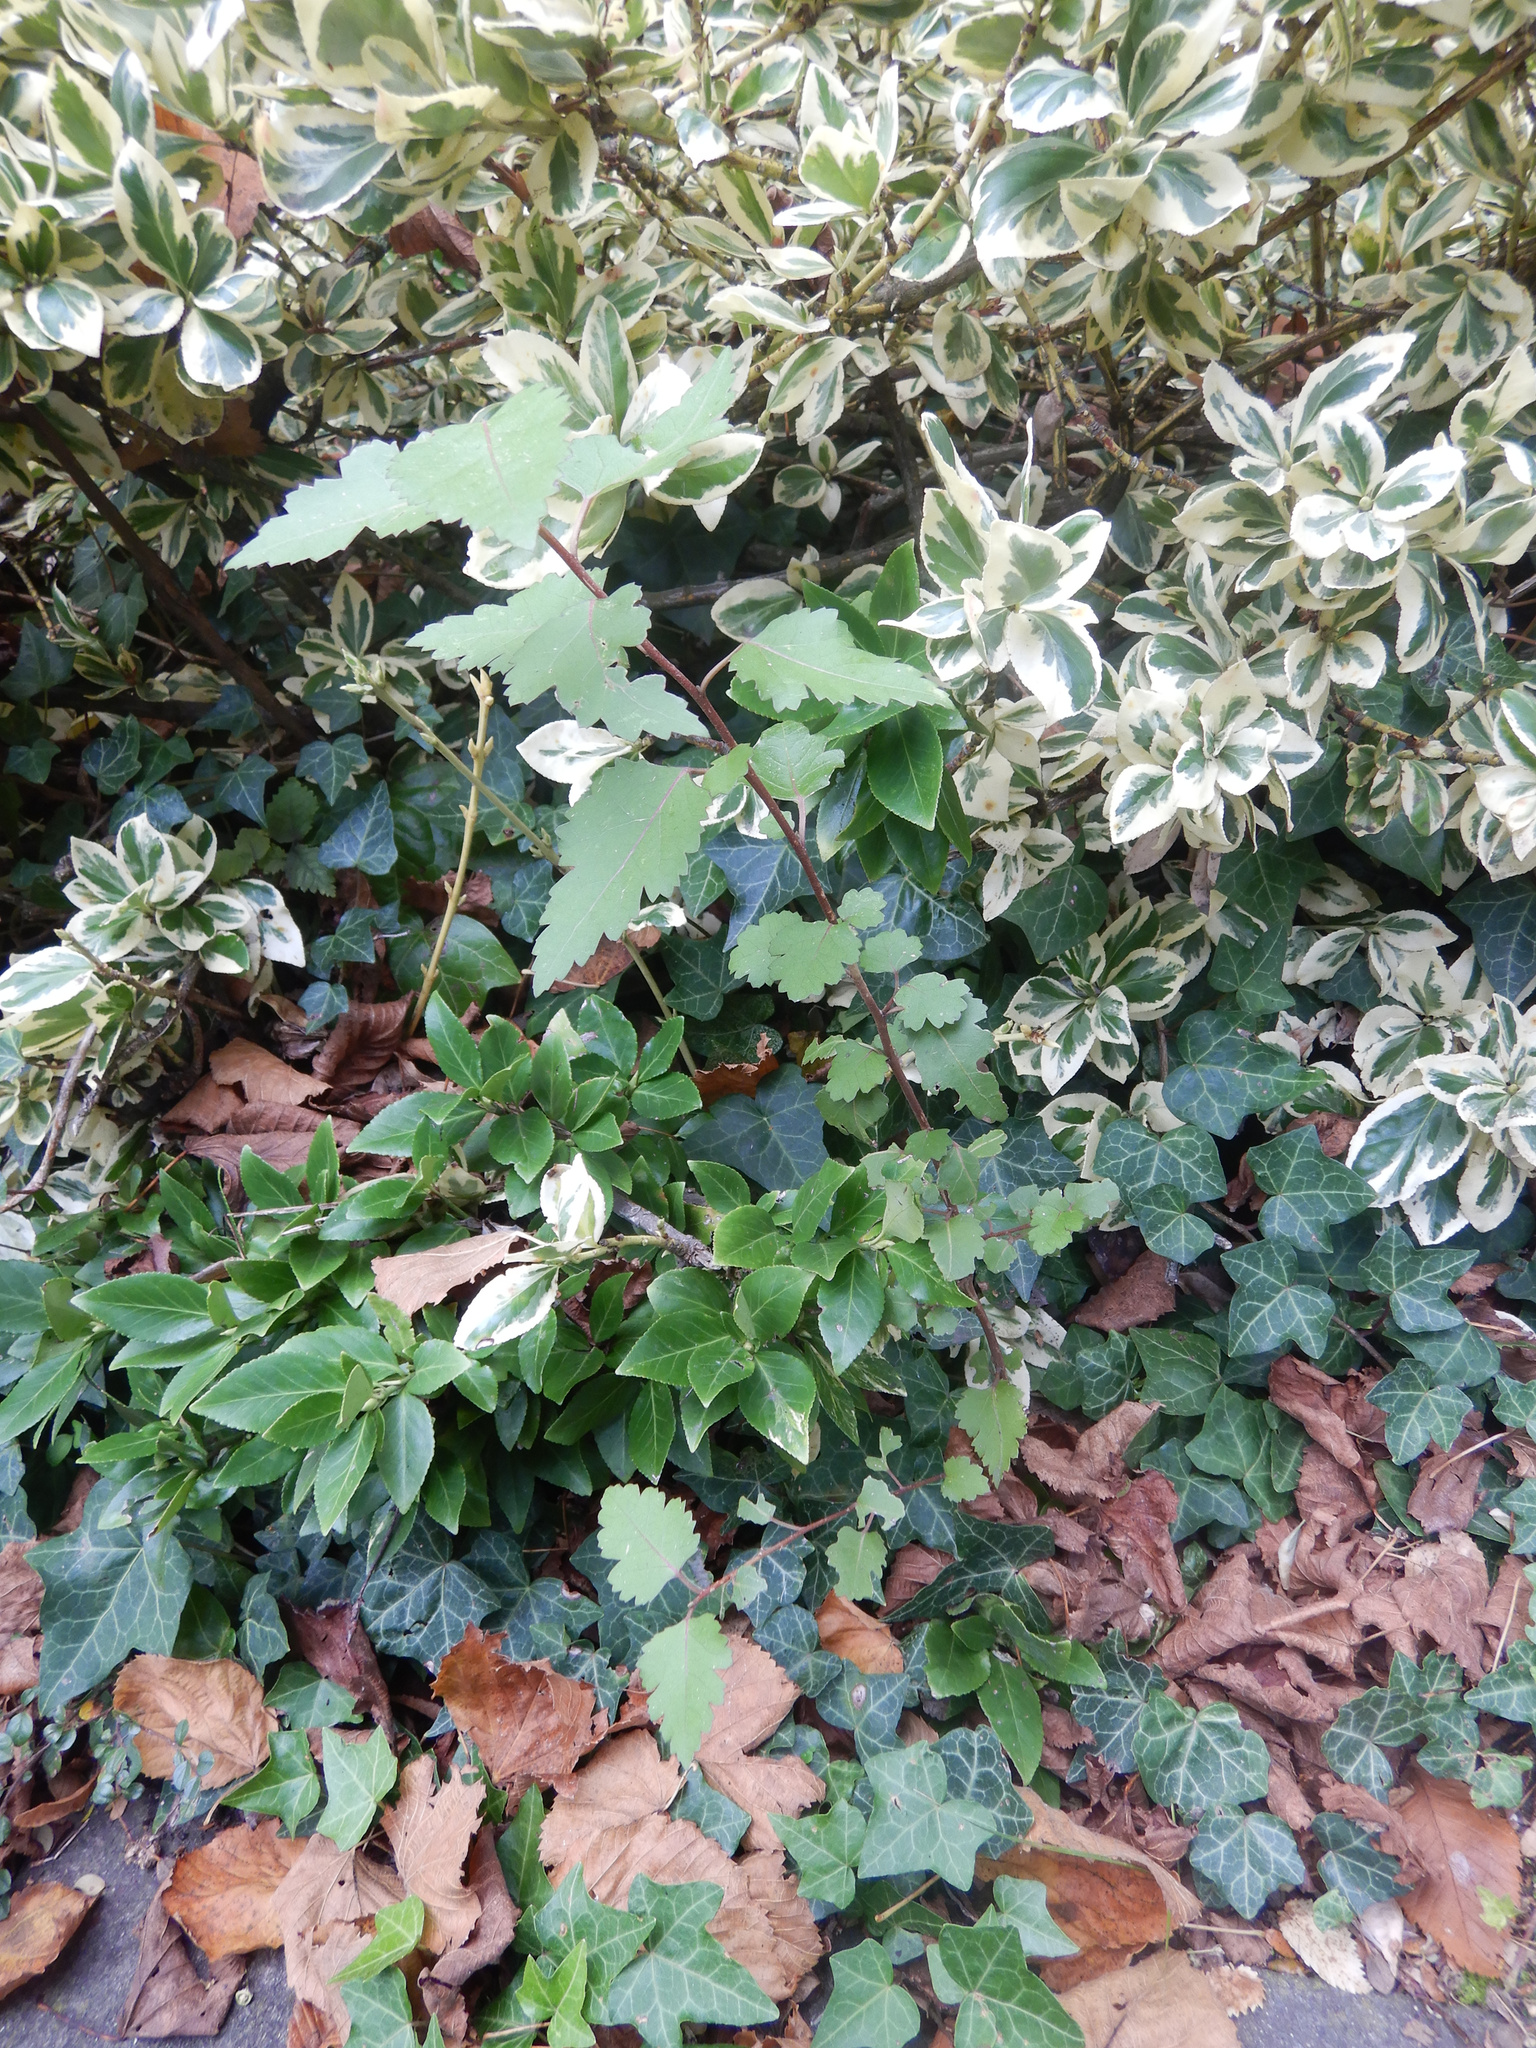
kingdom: Plantae
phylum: Tracheophyta
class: Magnoliopsida
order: Malvales
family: Malvaceae
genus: Plagianthus
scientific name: Plagianthus regius
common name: Manatu
